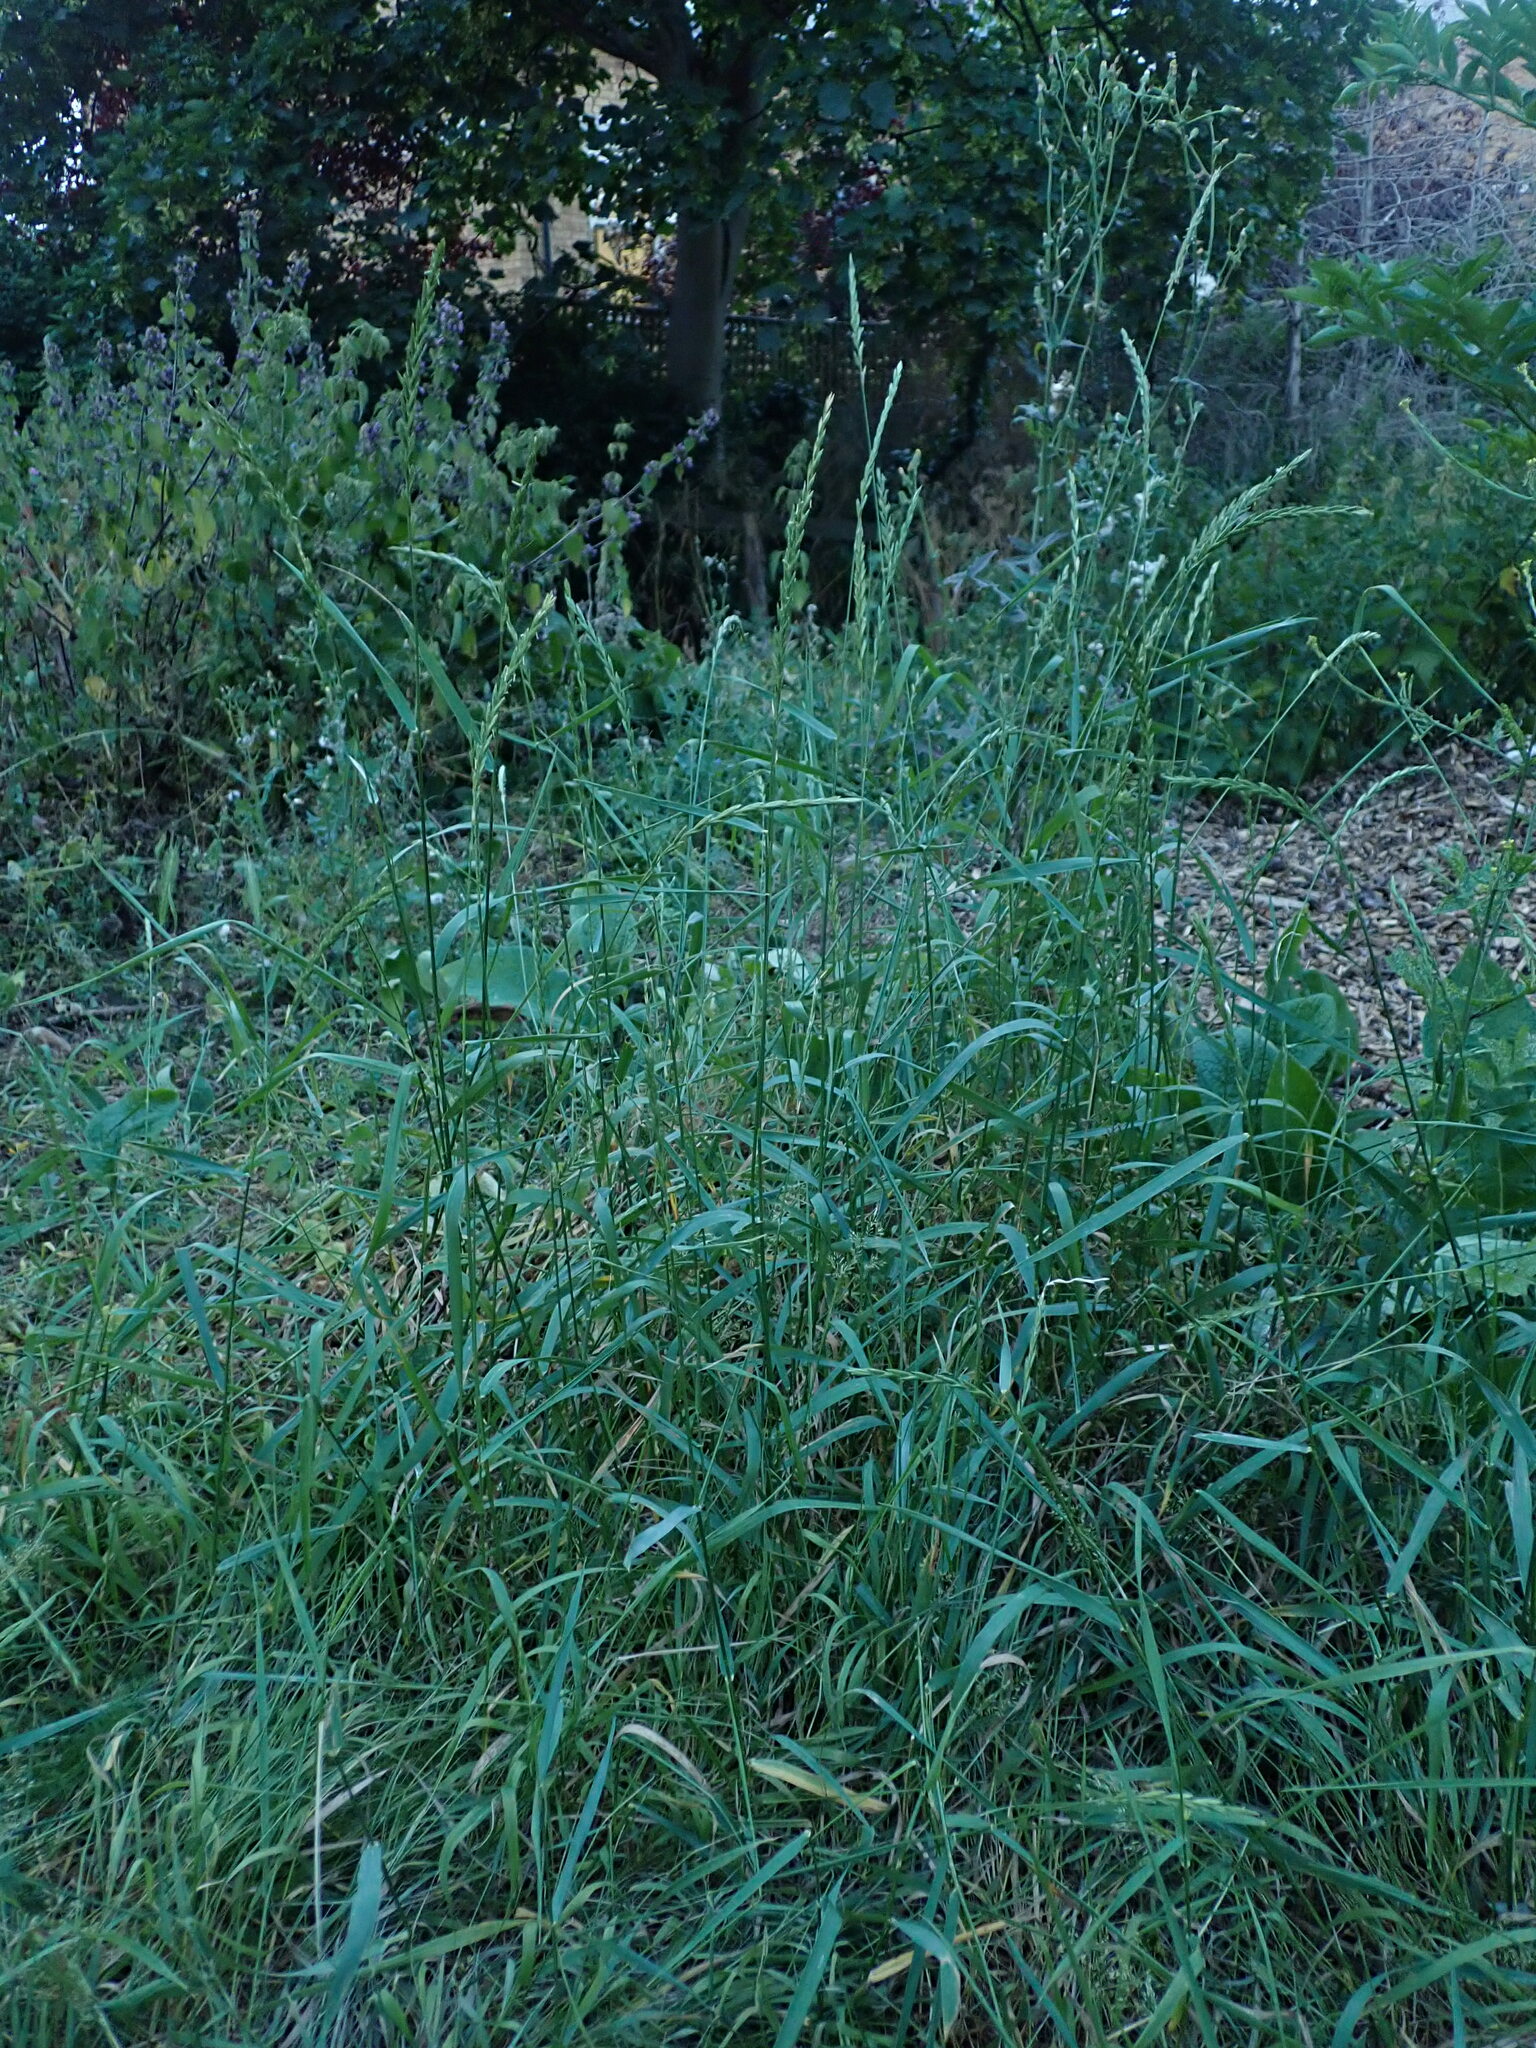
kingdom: Plantae
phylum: Tracheophyta
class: Liliopsida
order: Poales
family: Poaceae
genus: Elymus
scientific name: Elymus repens
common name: Quackgrass
